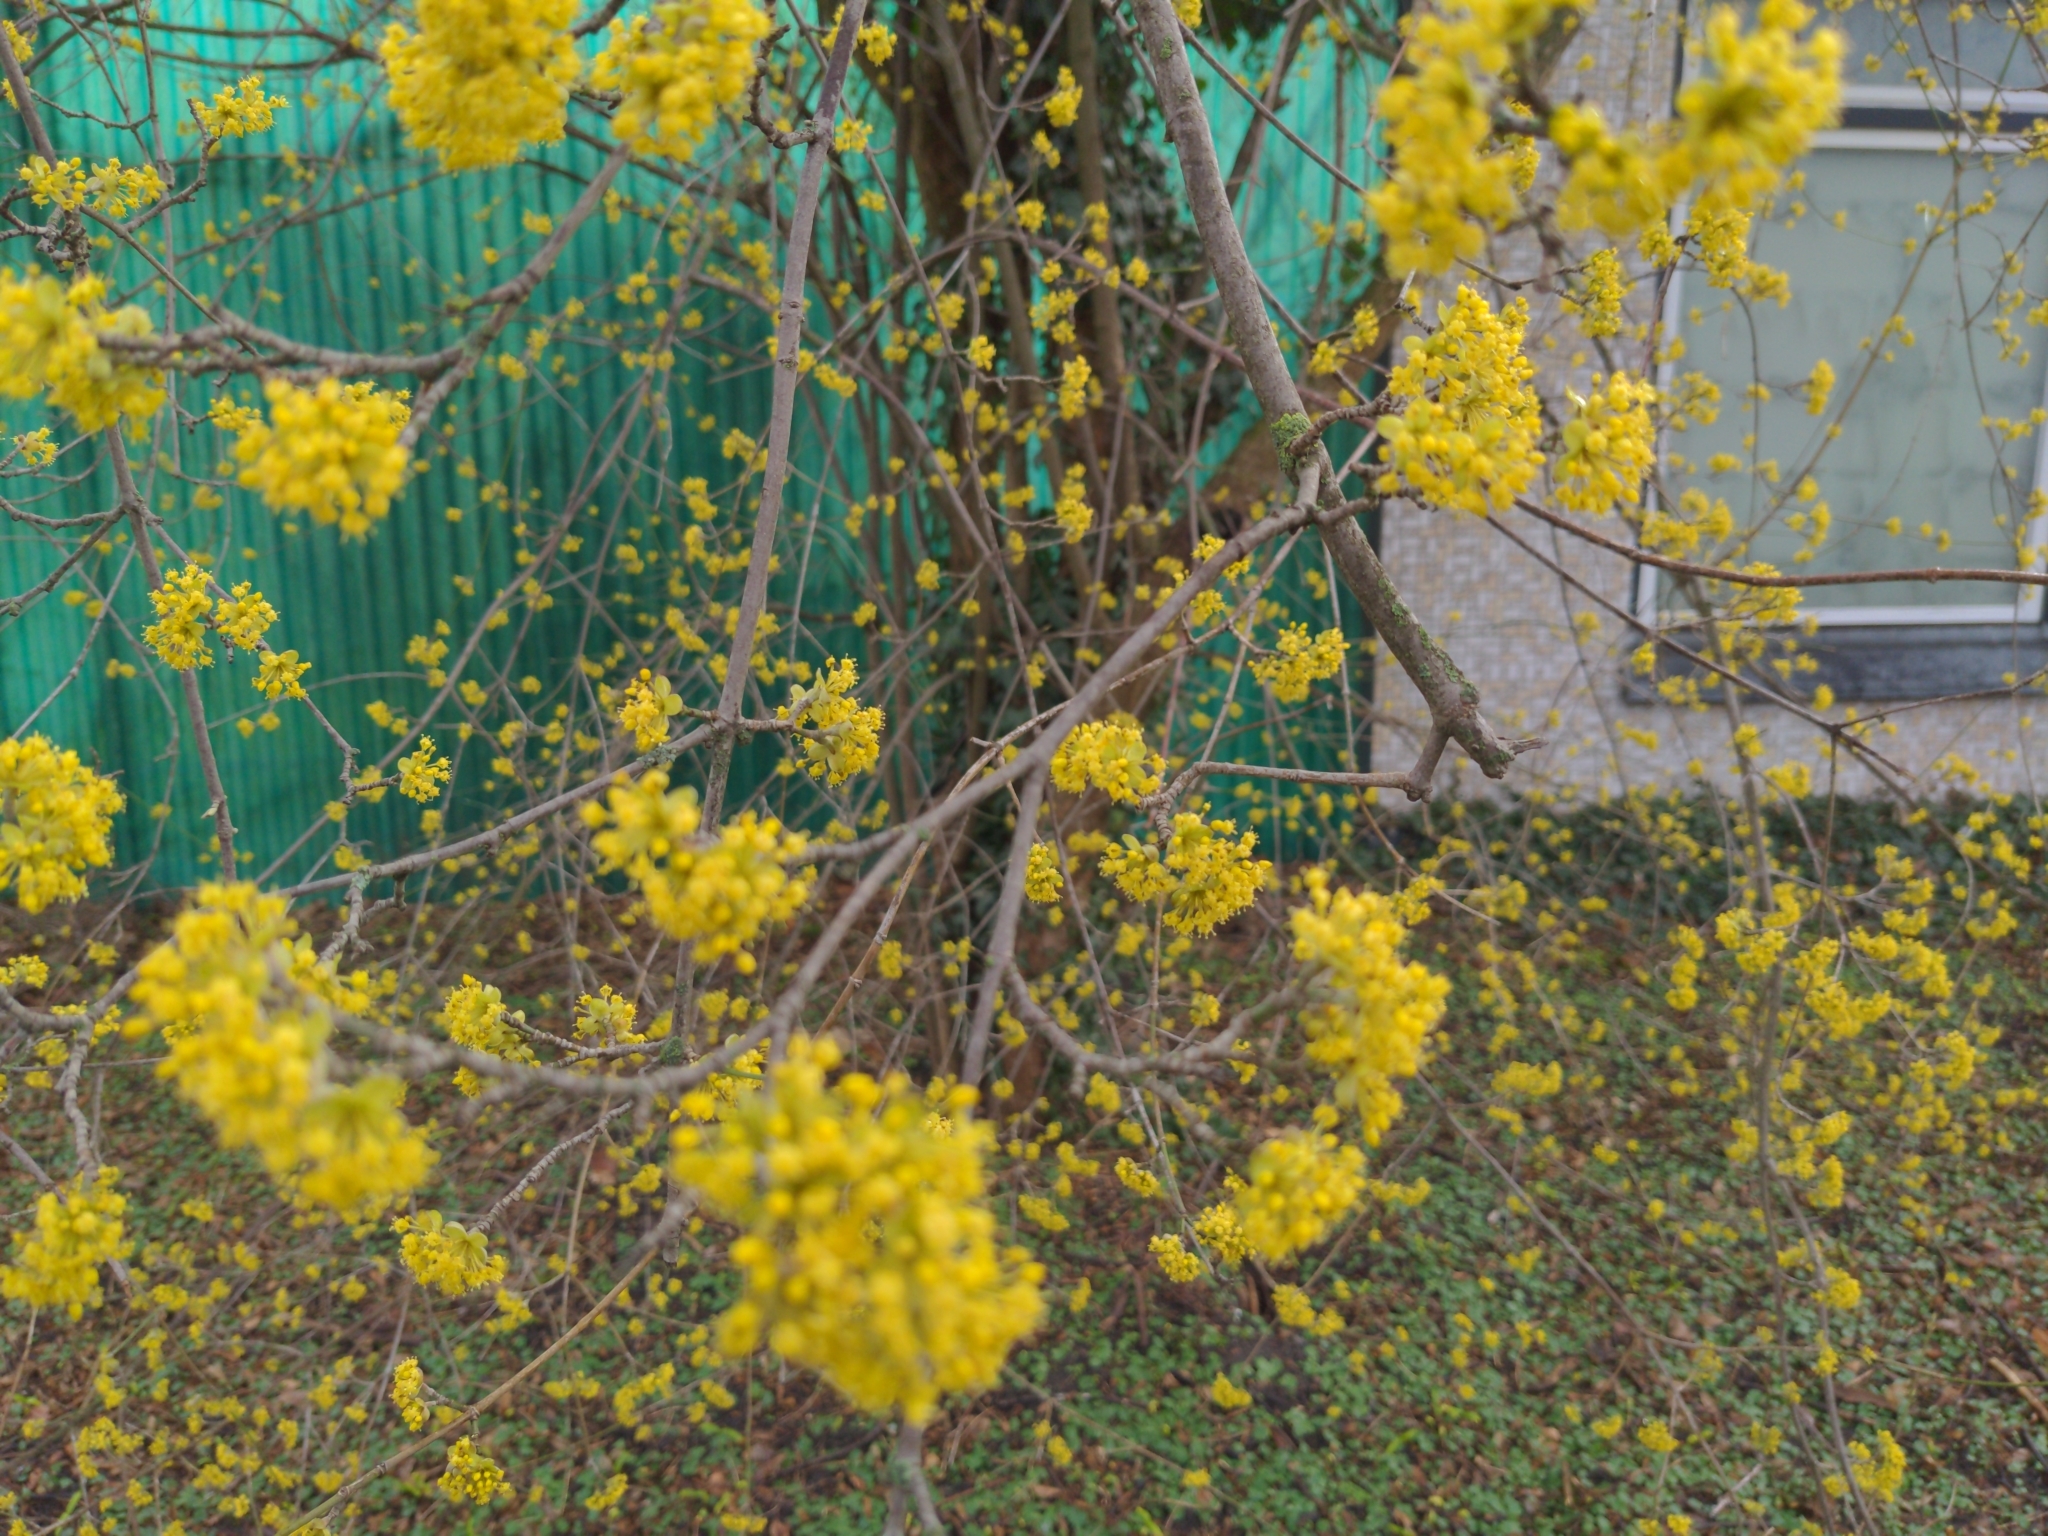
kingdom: Plantae
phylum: Tracheophyta
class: Magnoliopsida
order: Cornales
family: Cornaceae
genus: Cornus
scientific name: Cornus mas
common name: Cornelian-cherry
